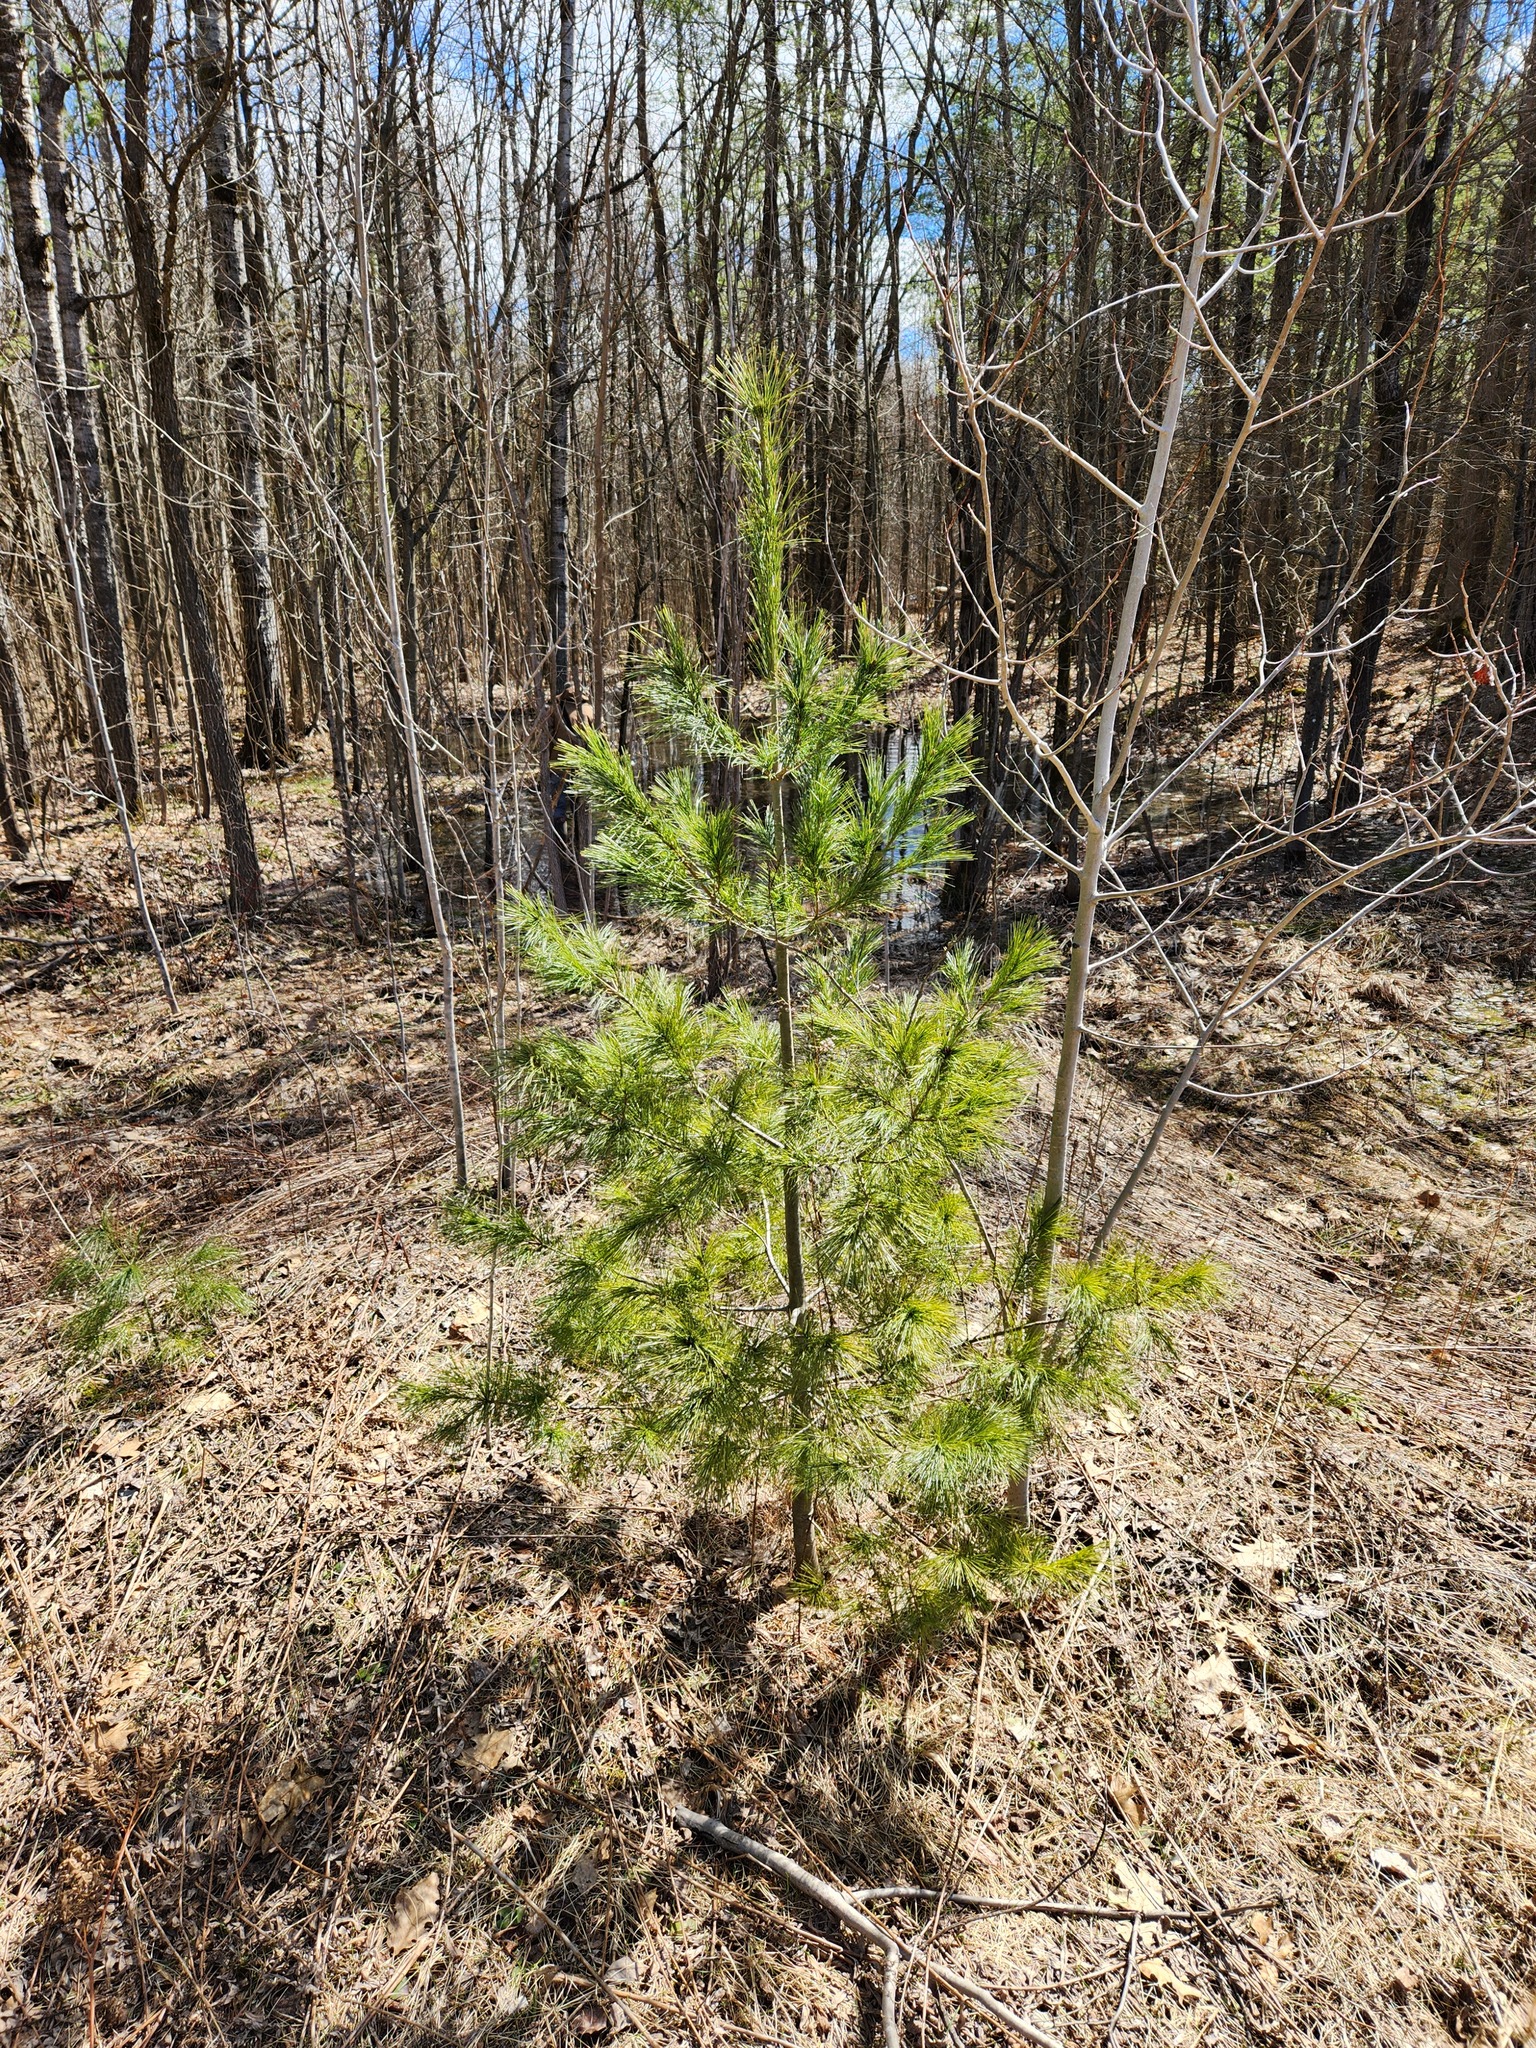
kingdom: Plantae
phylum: Tracheophyta
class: Pinopsida
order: Pinales
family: Pinaceae
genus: Pinus
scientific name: Pinus strobus
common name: Weymouth pine
